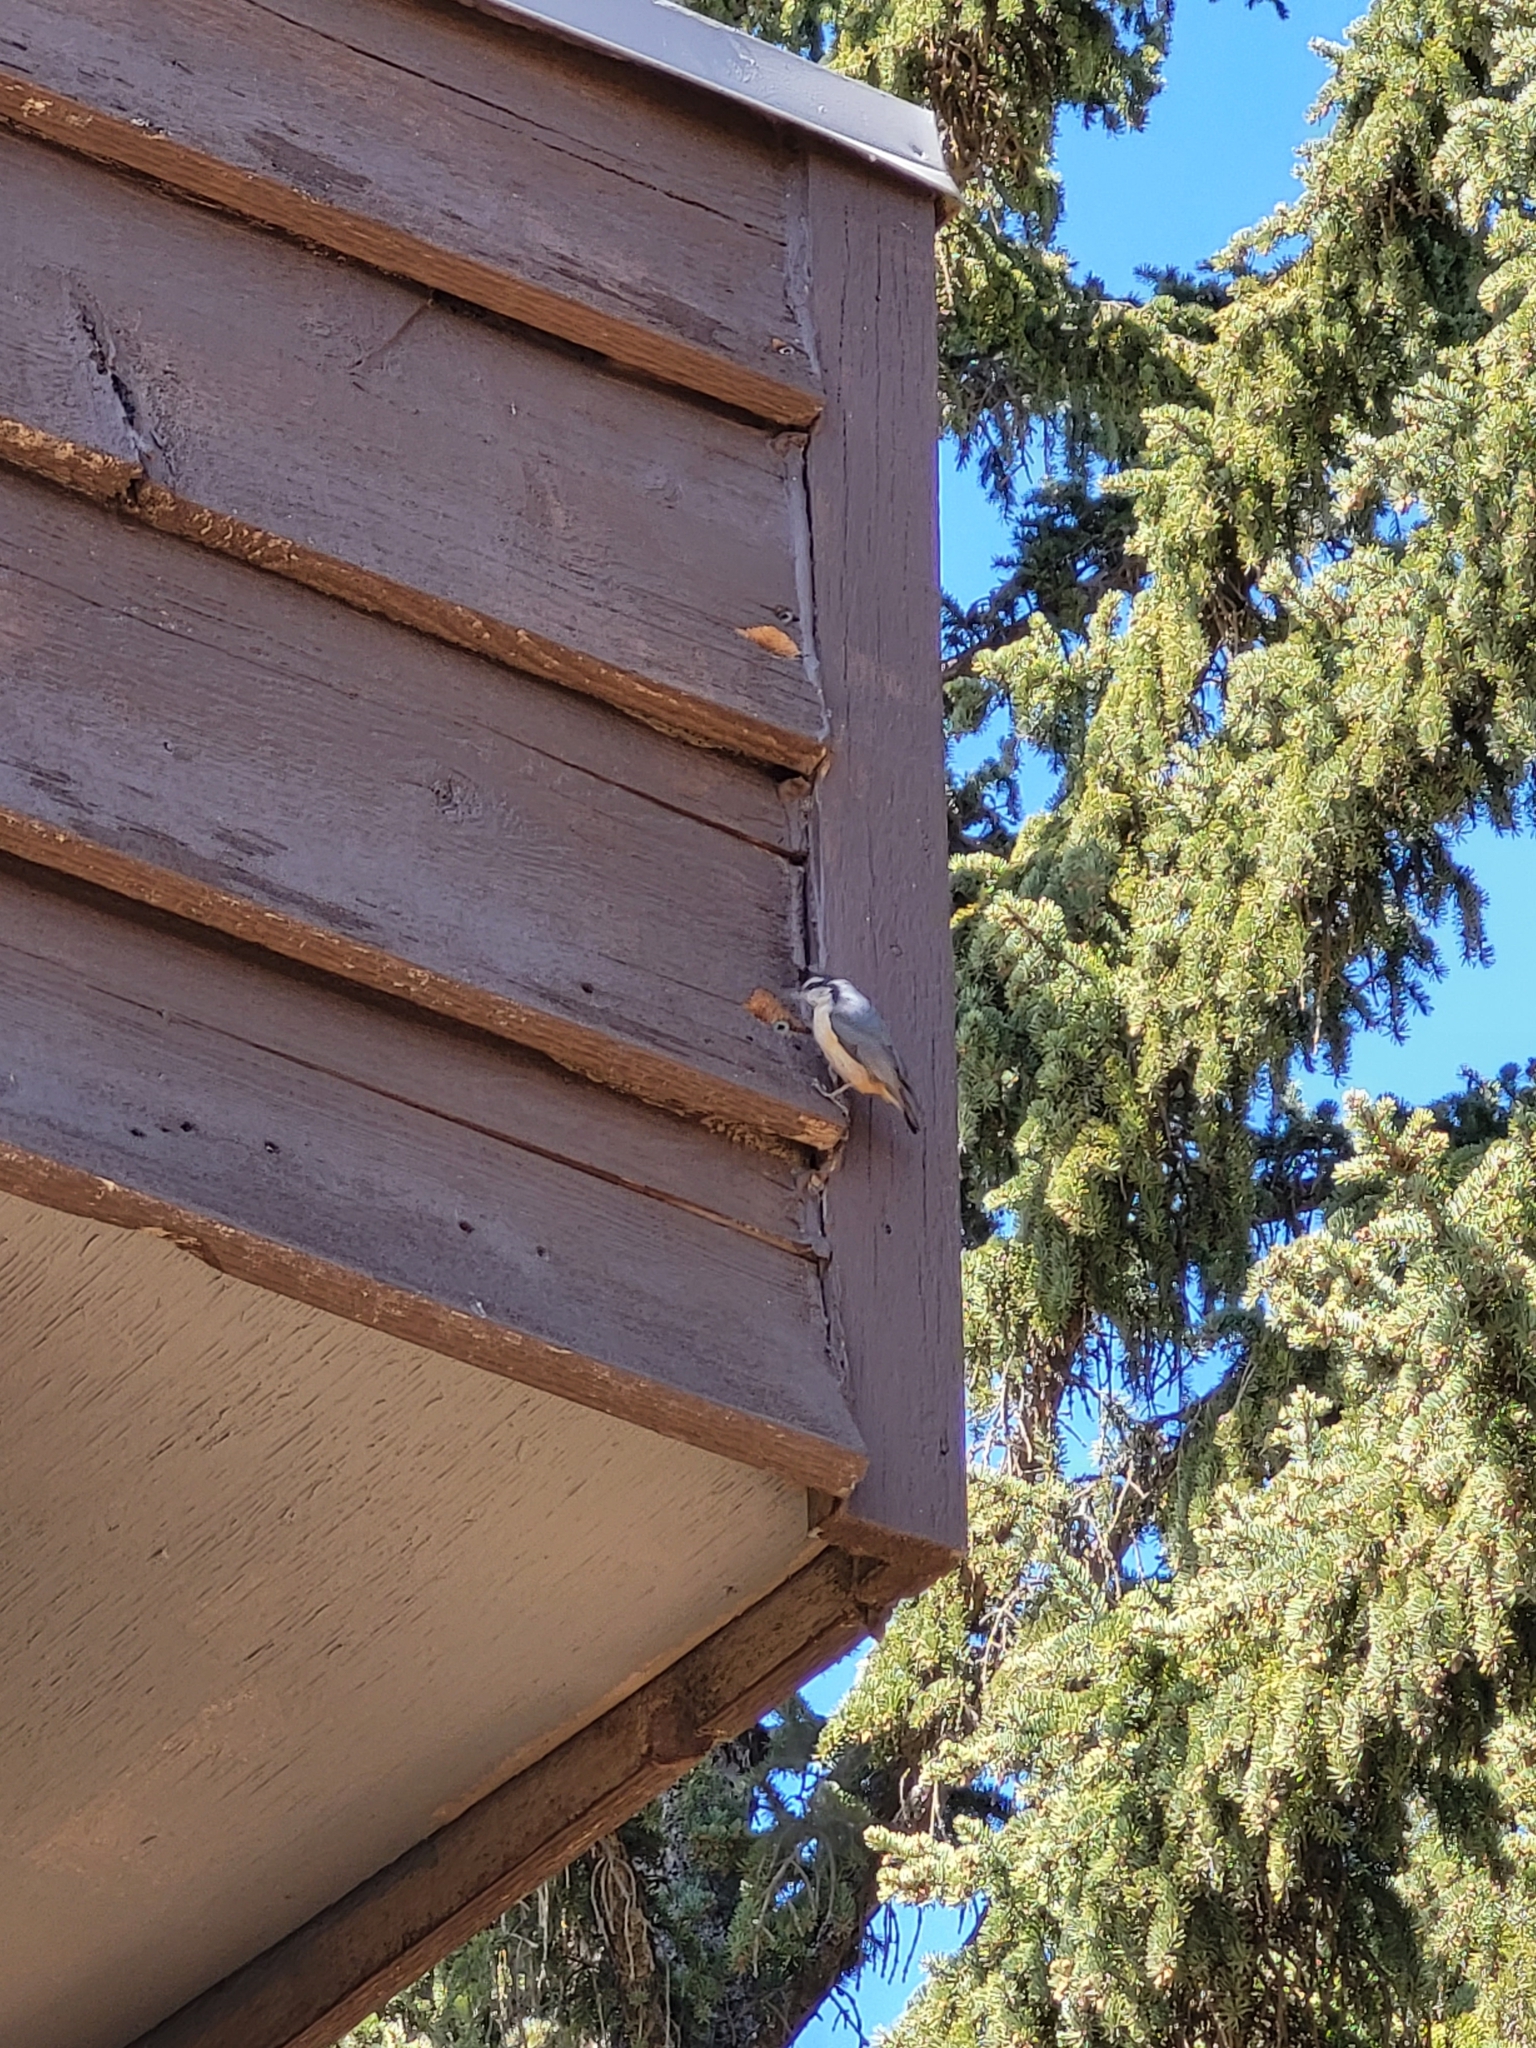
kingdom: Animalia
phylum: Chordata
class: Aves
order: Passeriformes
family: Sittidae
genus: Sitta
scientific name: Sitta canadensis
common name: Red-breasted nuthatch
